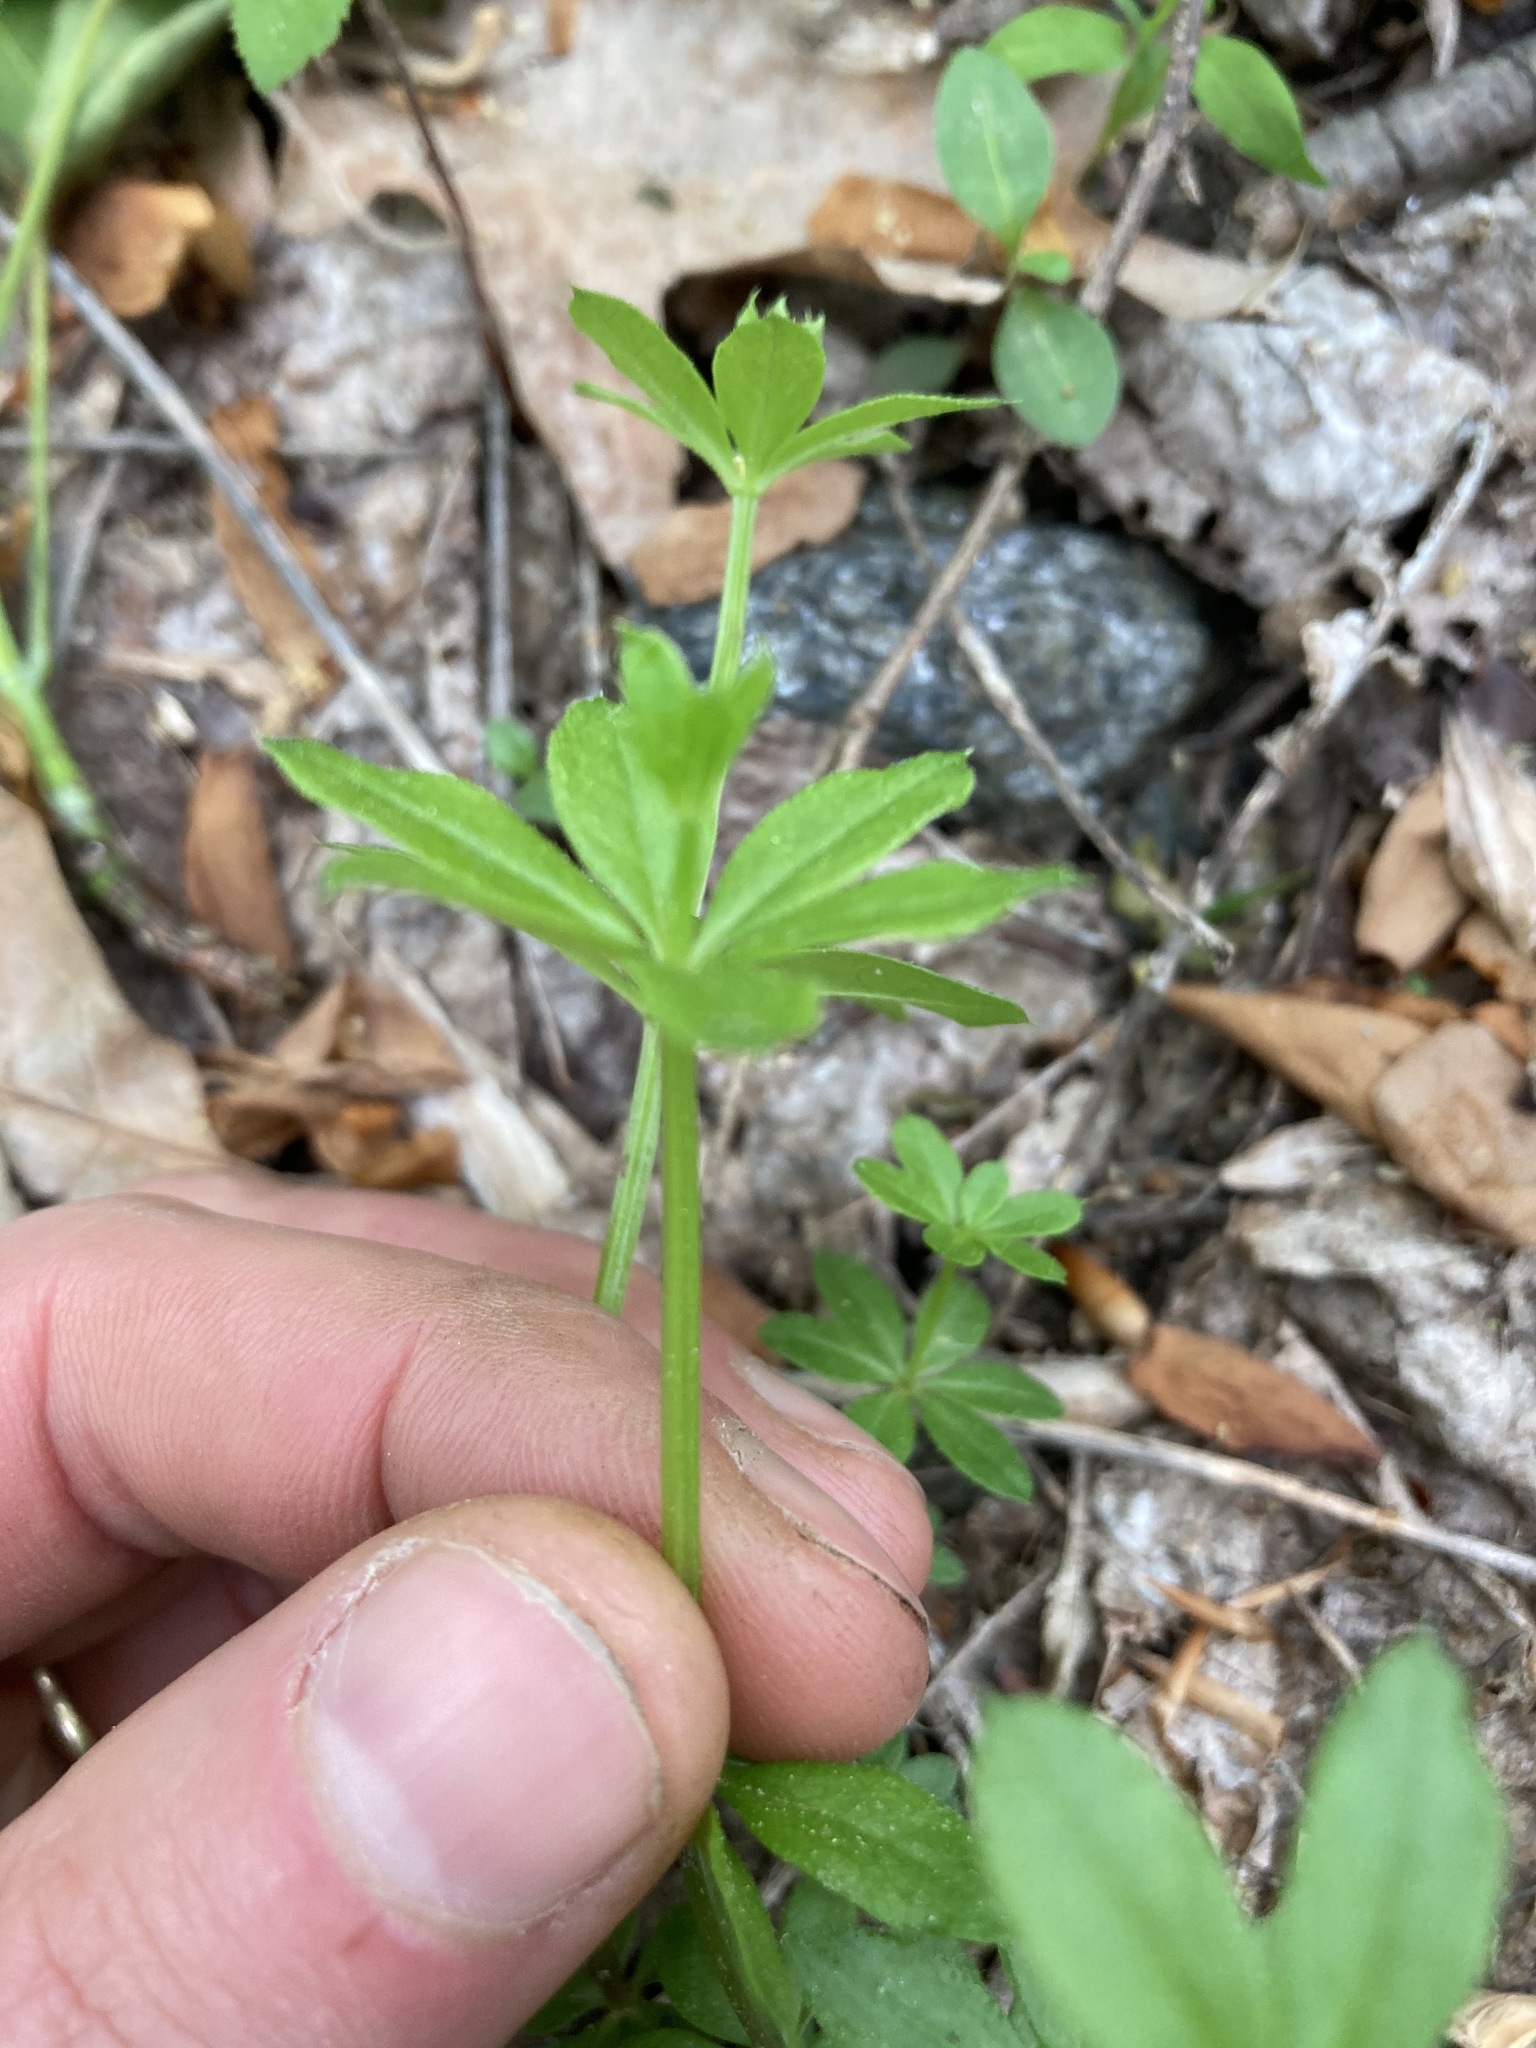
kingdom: Plantae
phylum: Tracheophyta
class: Magnoliopsida
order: Gentianales
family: Rubiaceae
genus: Galium
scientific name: Galium triflorum
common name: Fragrant bedstraw
